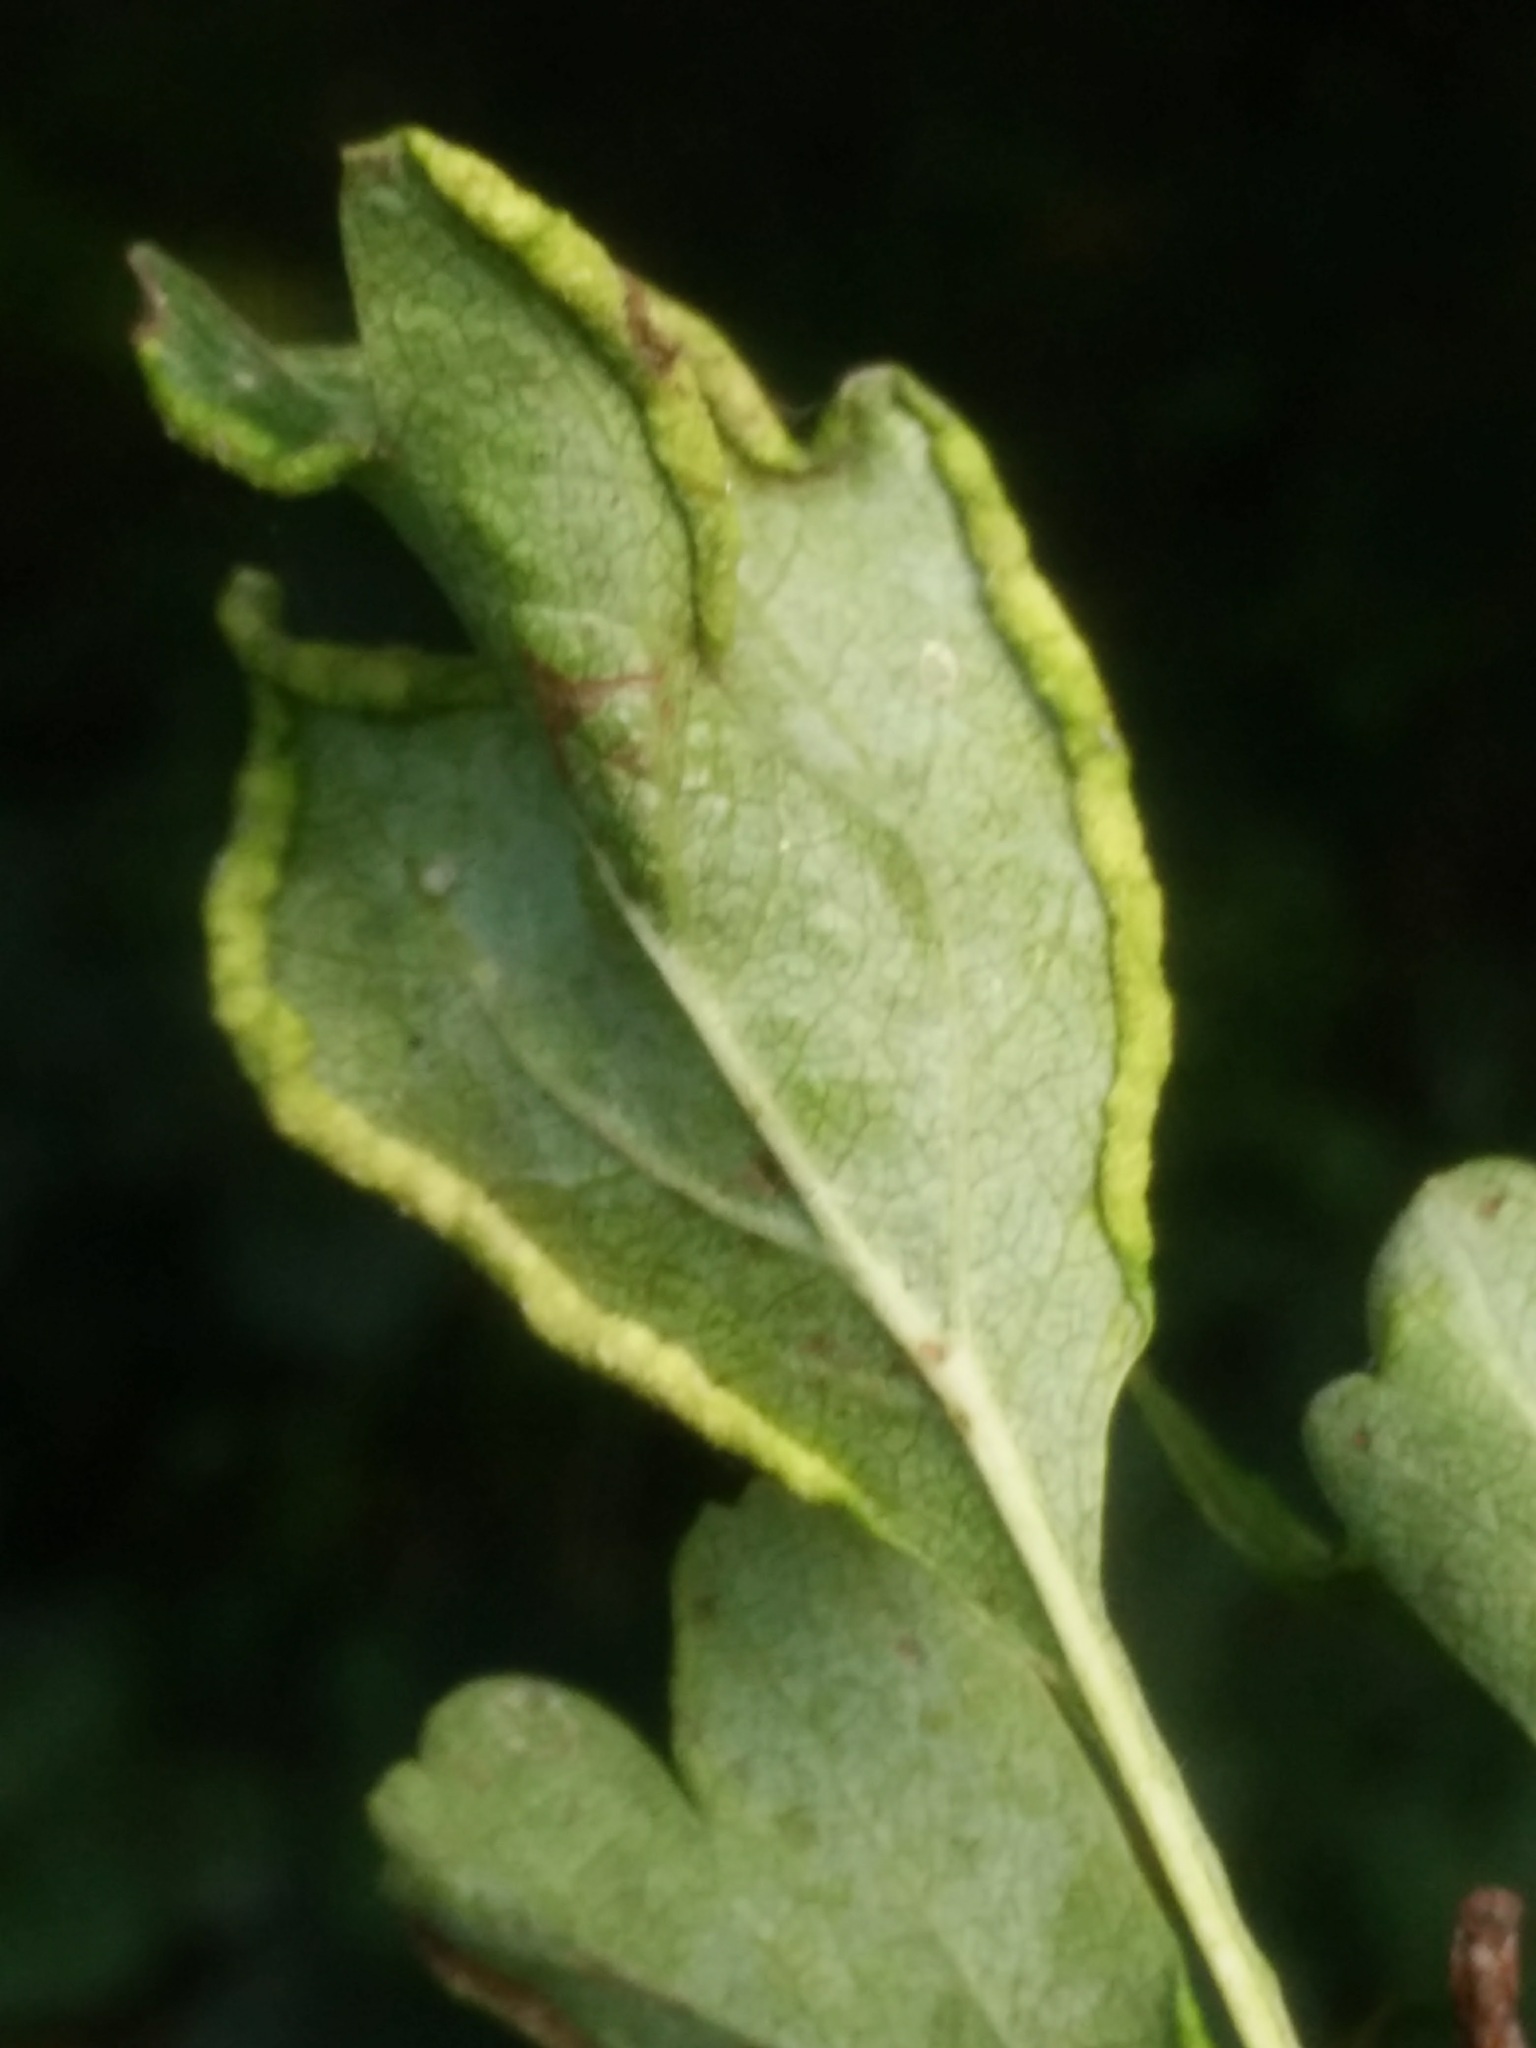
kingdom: Animalia
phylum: Arthropoda
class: Arachnida
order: Trombidiformes
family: Eriophyidae
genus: Phyllocoptes
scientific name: Phyllocoptes goniothorax
